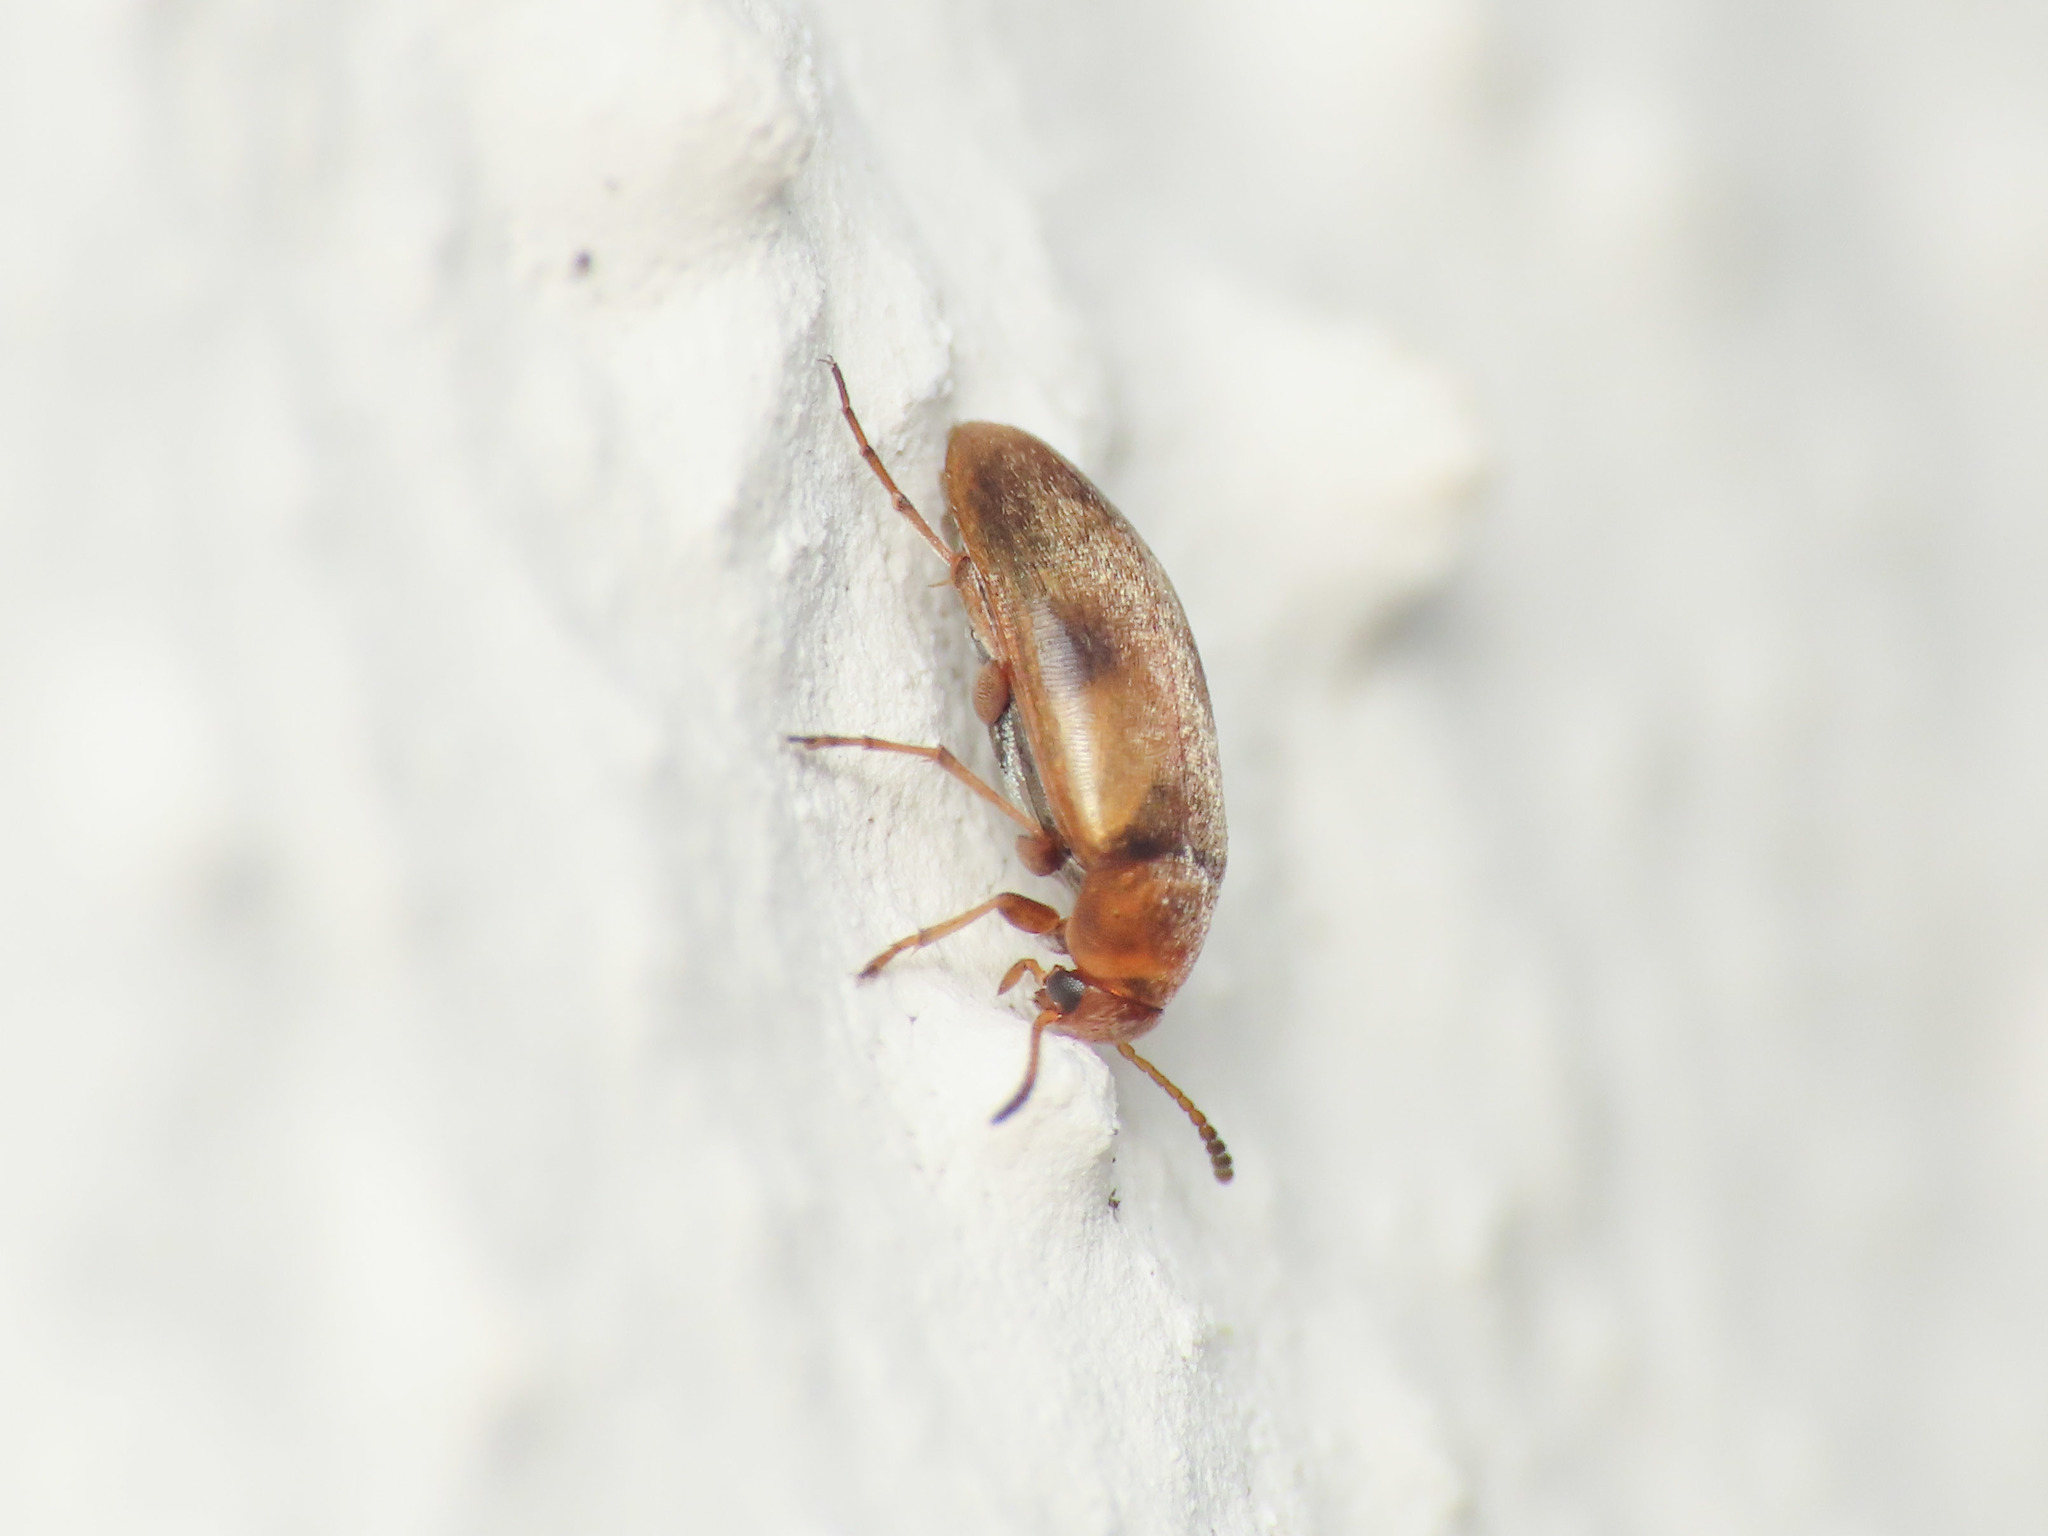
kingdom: Animalia
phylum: Arthropoda
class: Insecta
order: Coleoptera
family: Scraptiidae
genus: Anaspis
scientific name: Anaspis maculata
